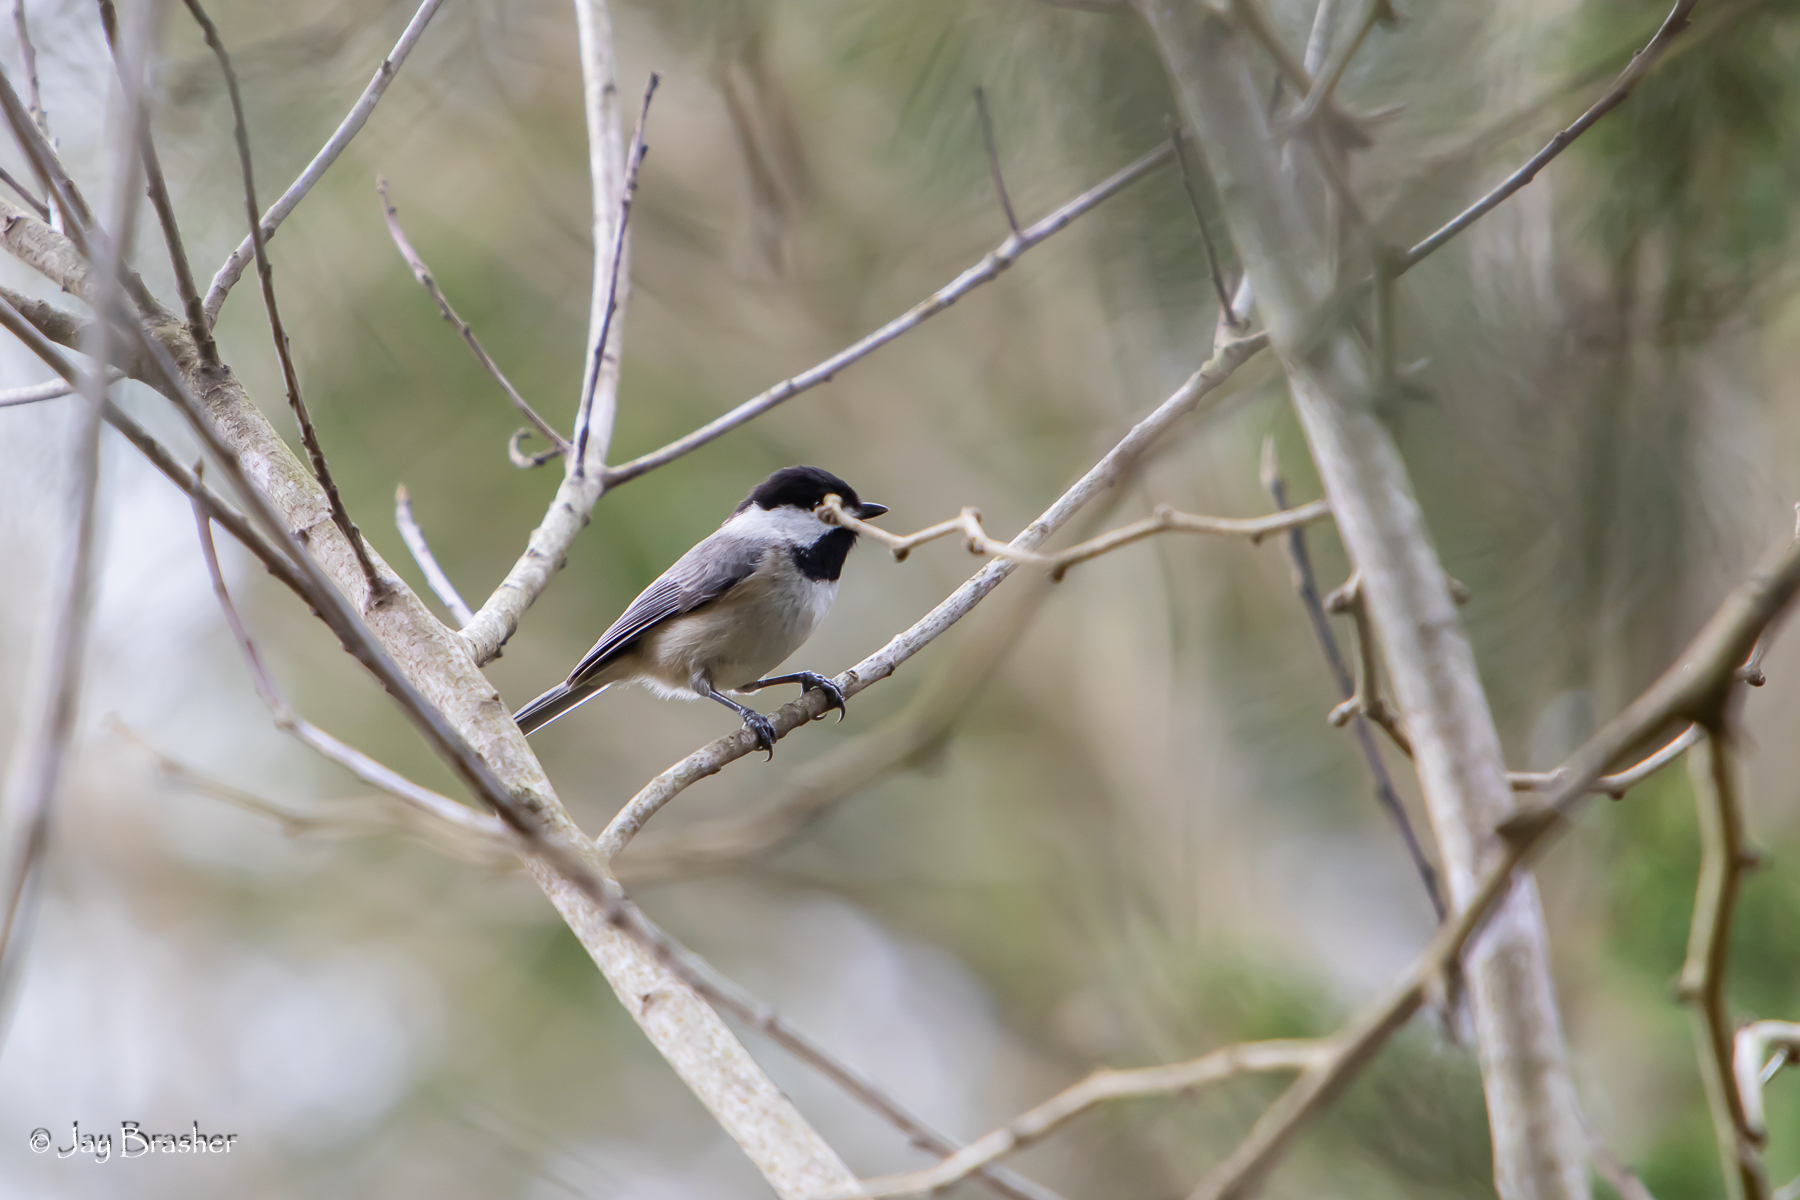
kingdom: Animalia
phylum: Chordata
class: Aves
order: Passeriformes
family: Paridae
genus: Poecile
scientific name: Poecile carolinensis
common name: Carolina chickadee
